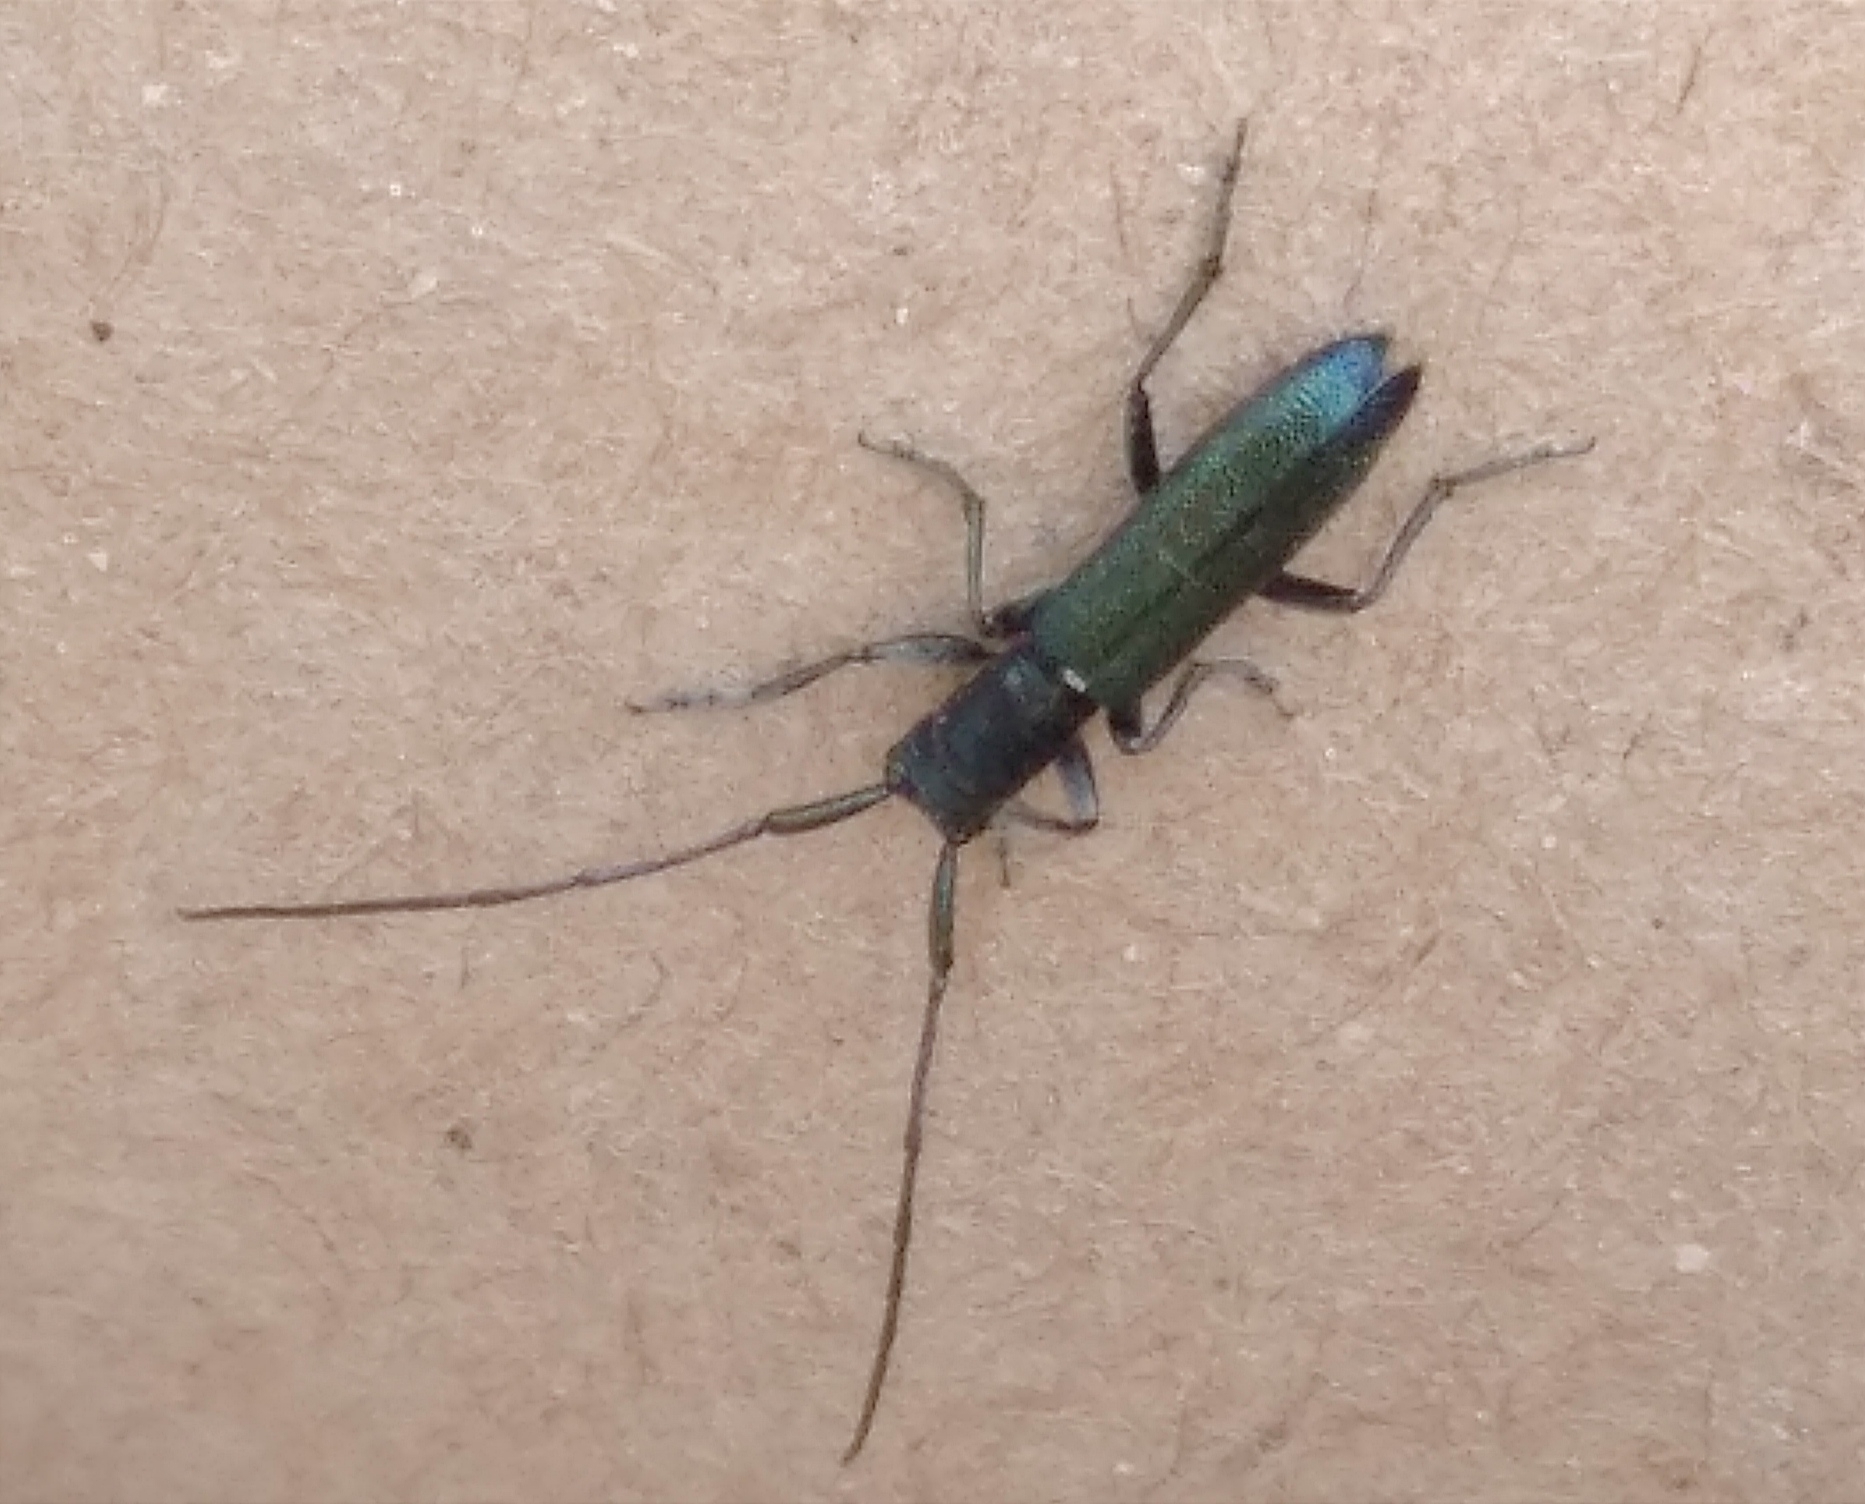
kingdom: Animalia
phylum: Arthropoda
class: Insecta
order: Coleoptera
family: Cerambycidae
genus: Agapanthiola
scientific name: Agapanthiola leucaspis
